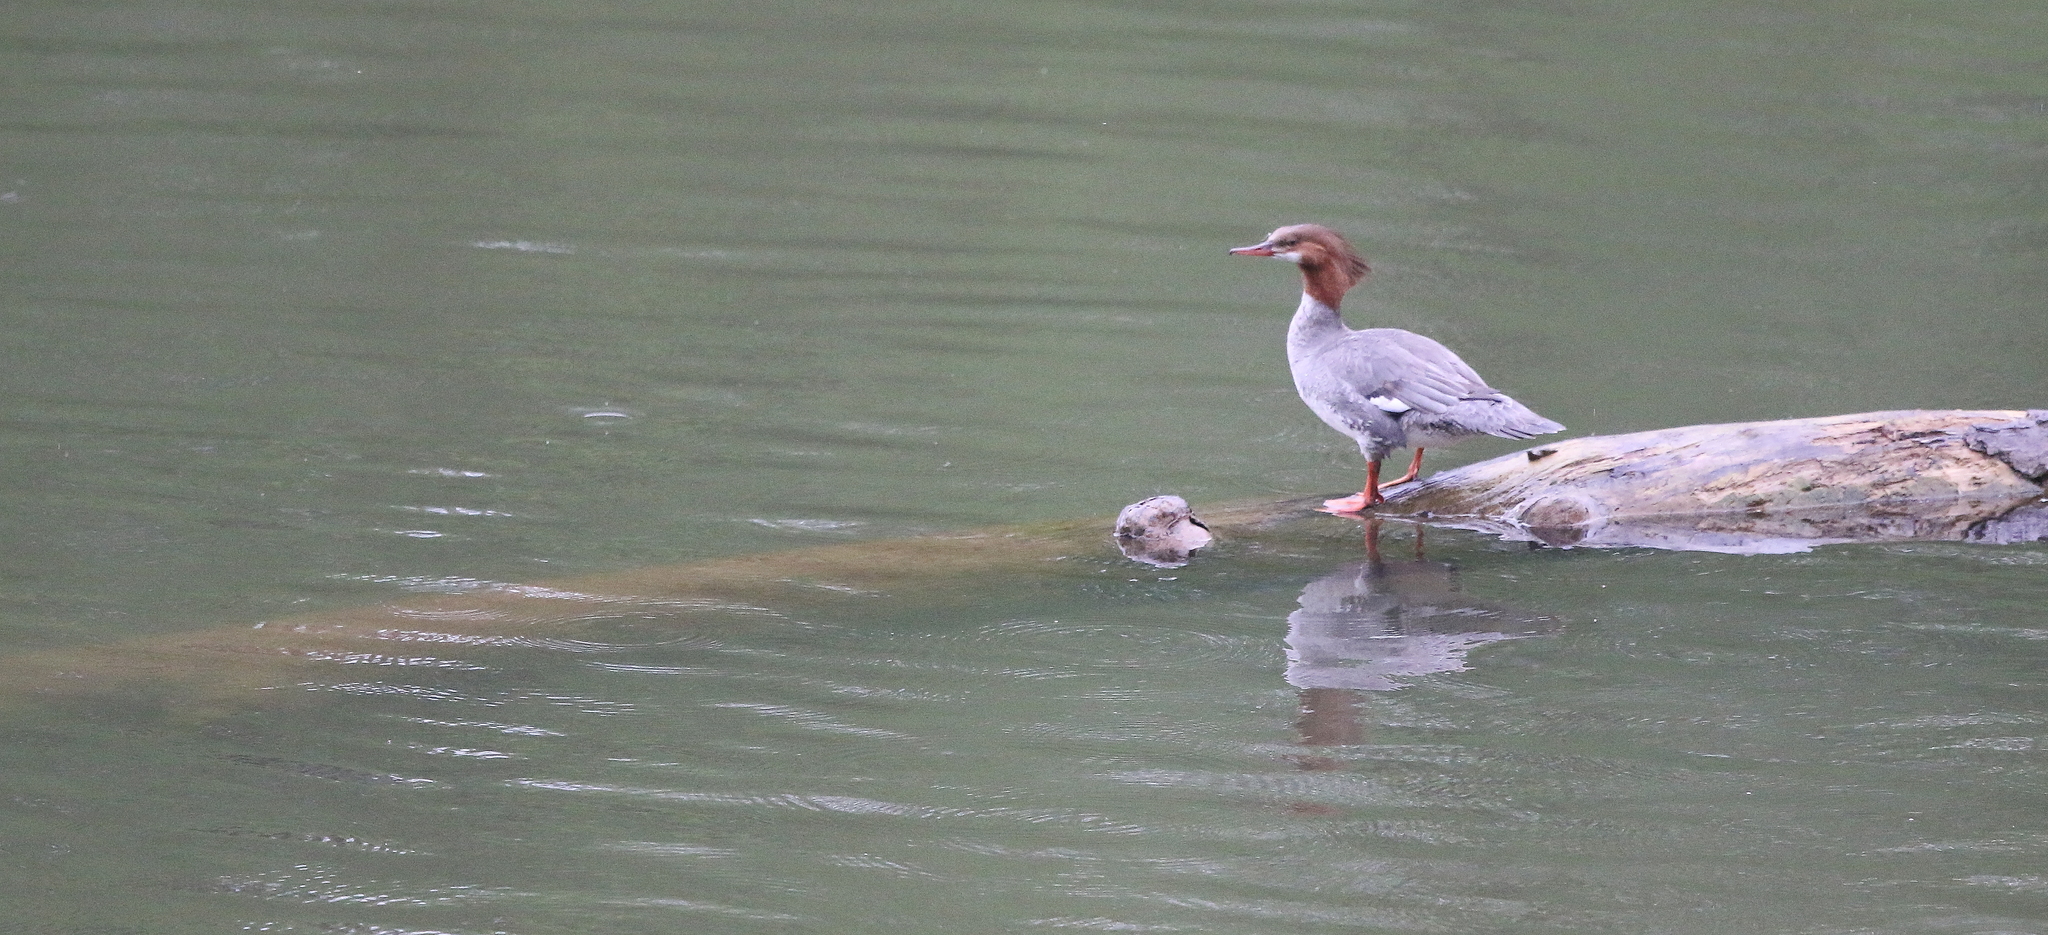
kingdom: Animalia
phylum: Chordata
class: Aves
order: Anseriformes
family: Anatidae
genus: Mergus
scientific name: Mergus merganser
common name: Common merganser
